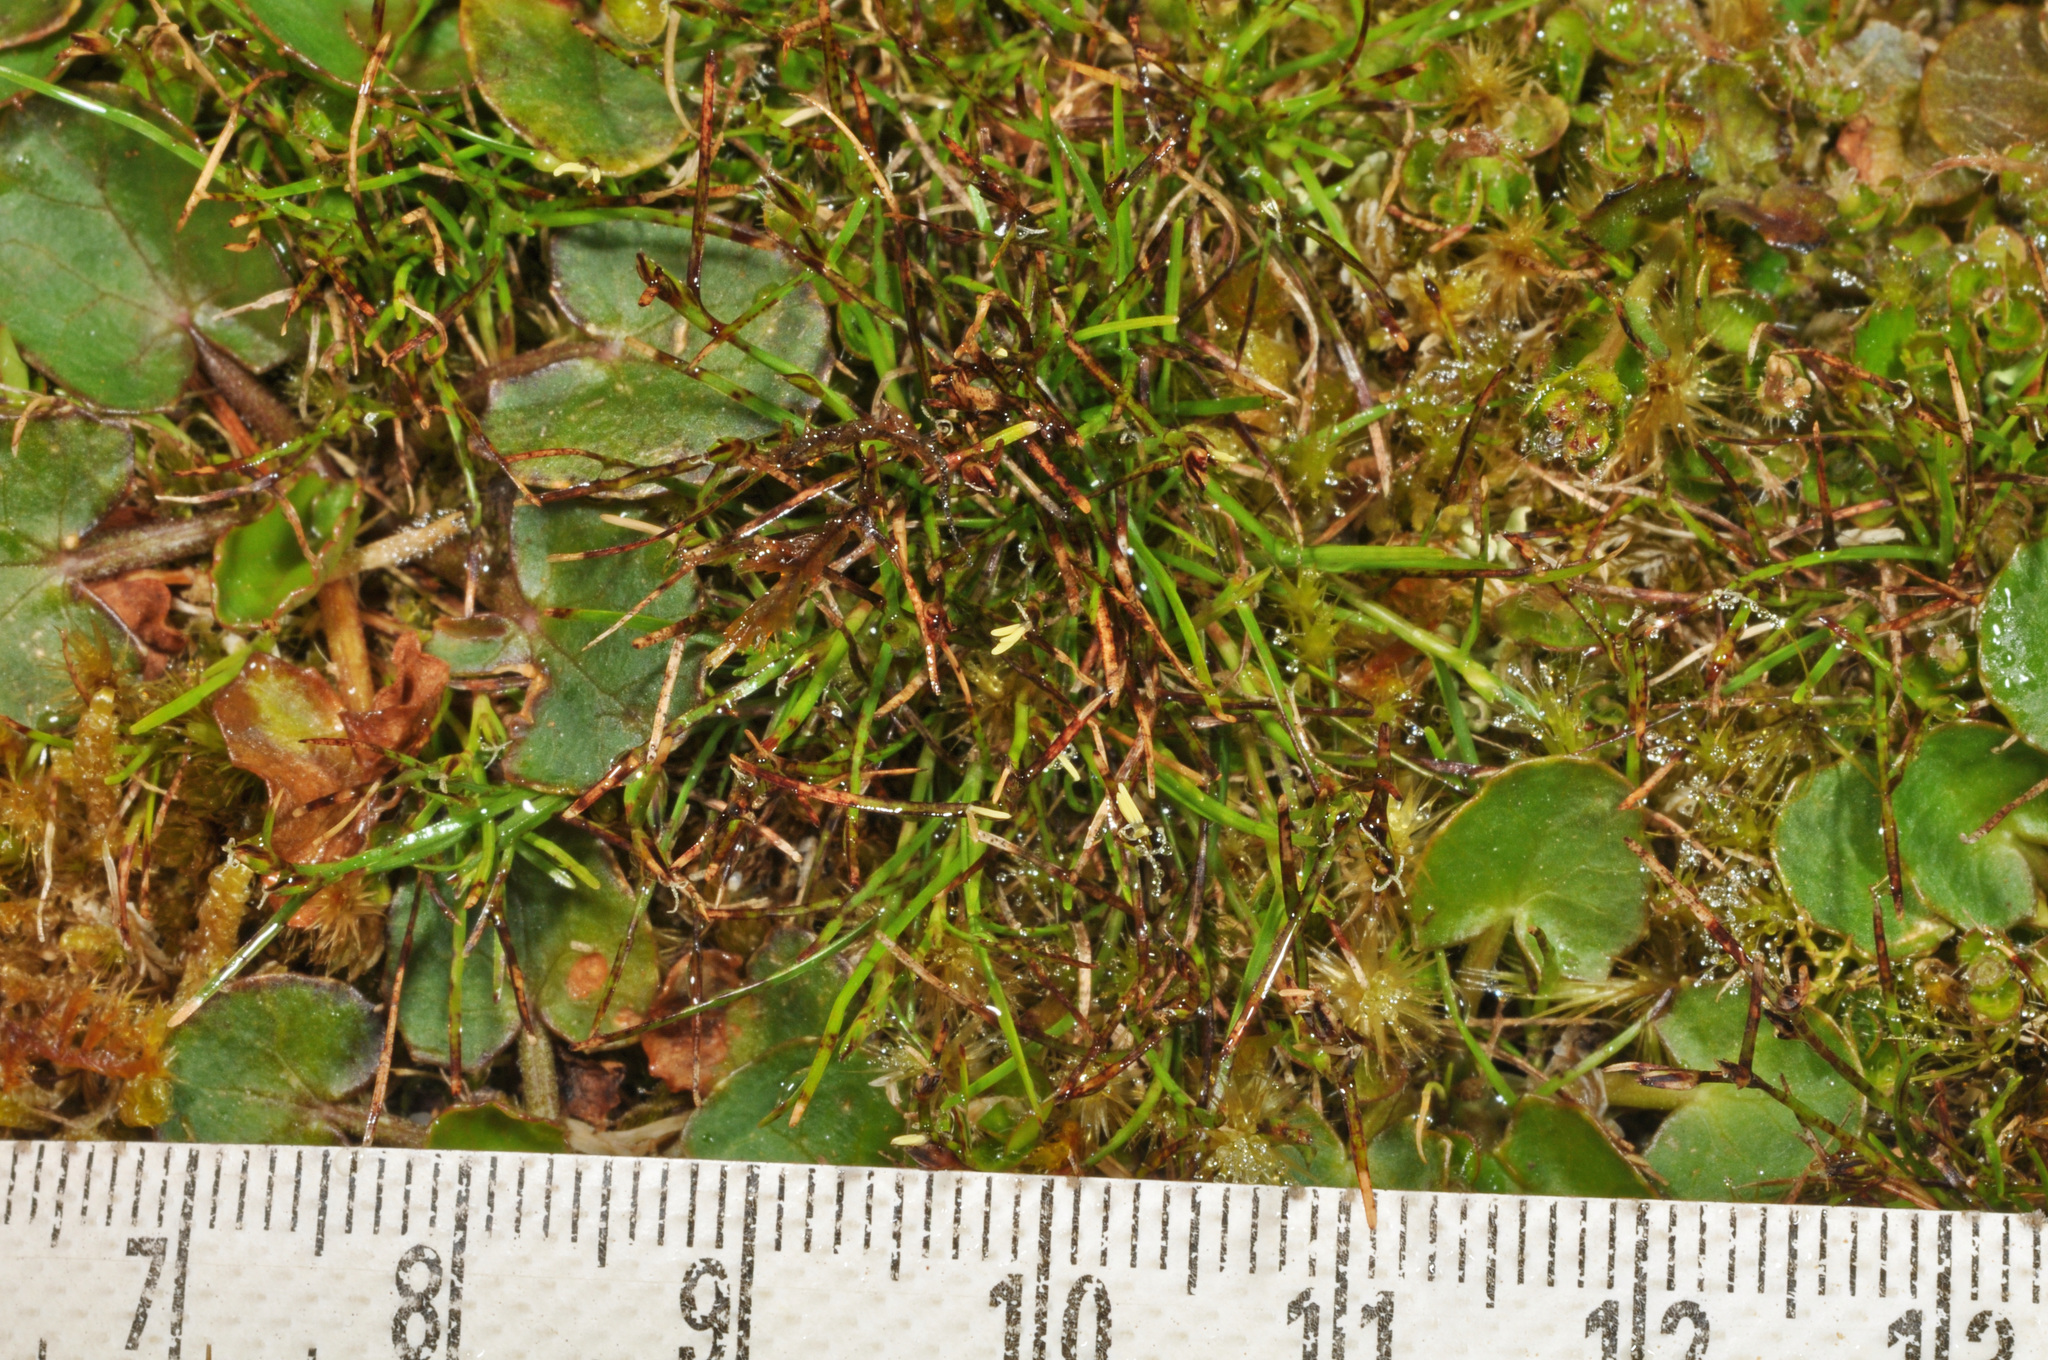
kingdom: Plantae
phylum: Tracheophyta
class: Liliopsida
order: Poales
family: Cyperaceae
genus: Schoenus
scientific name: Schoenus maschalinus
